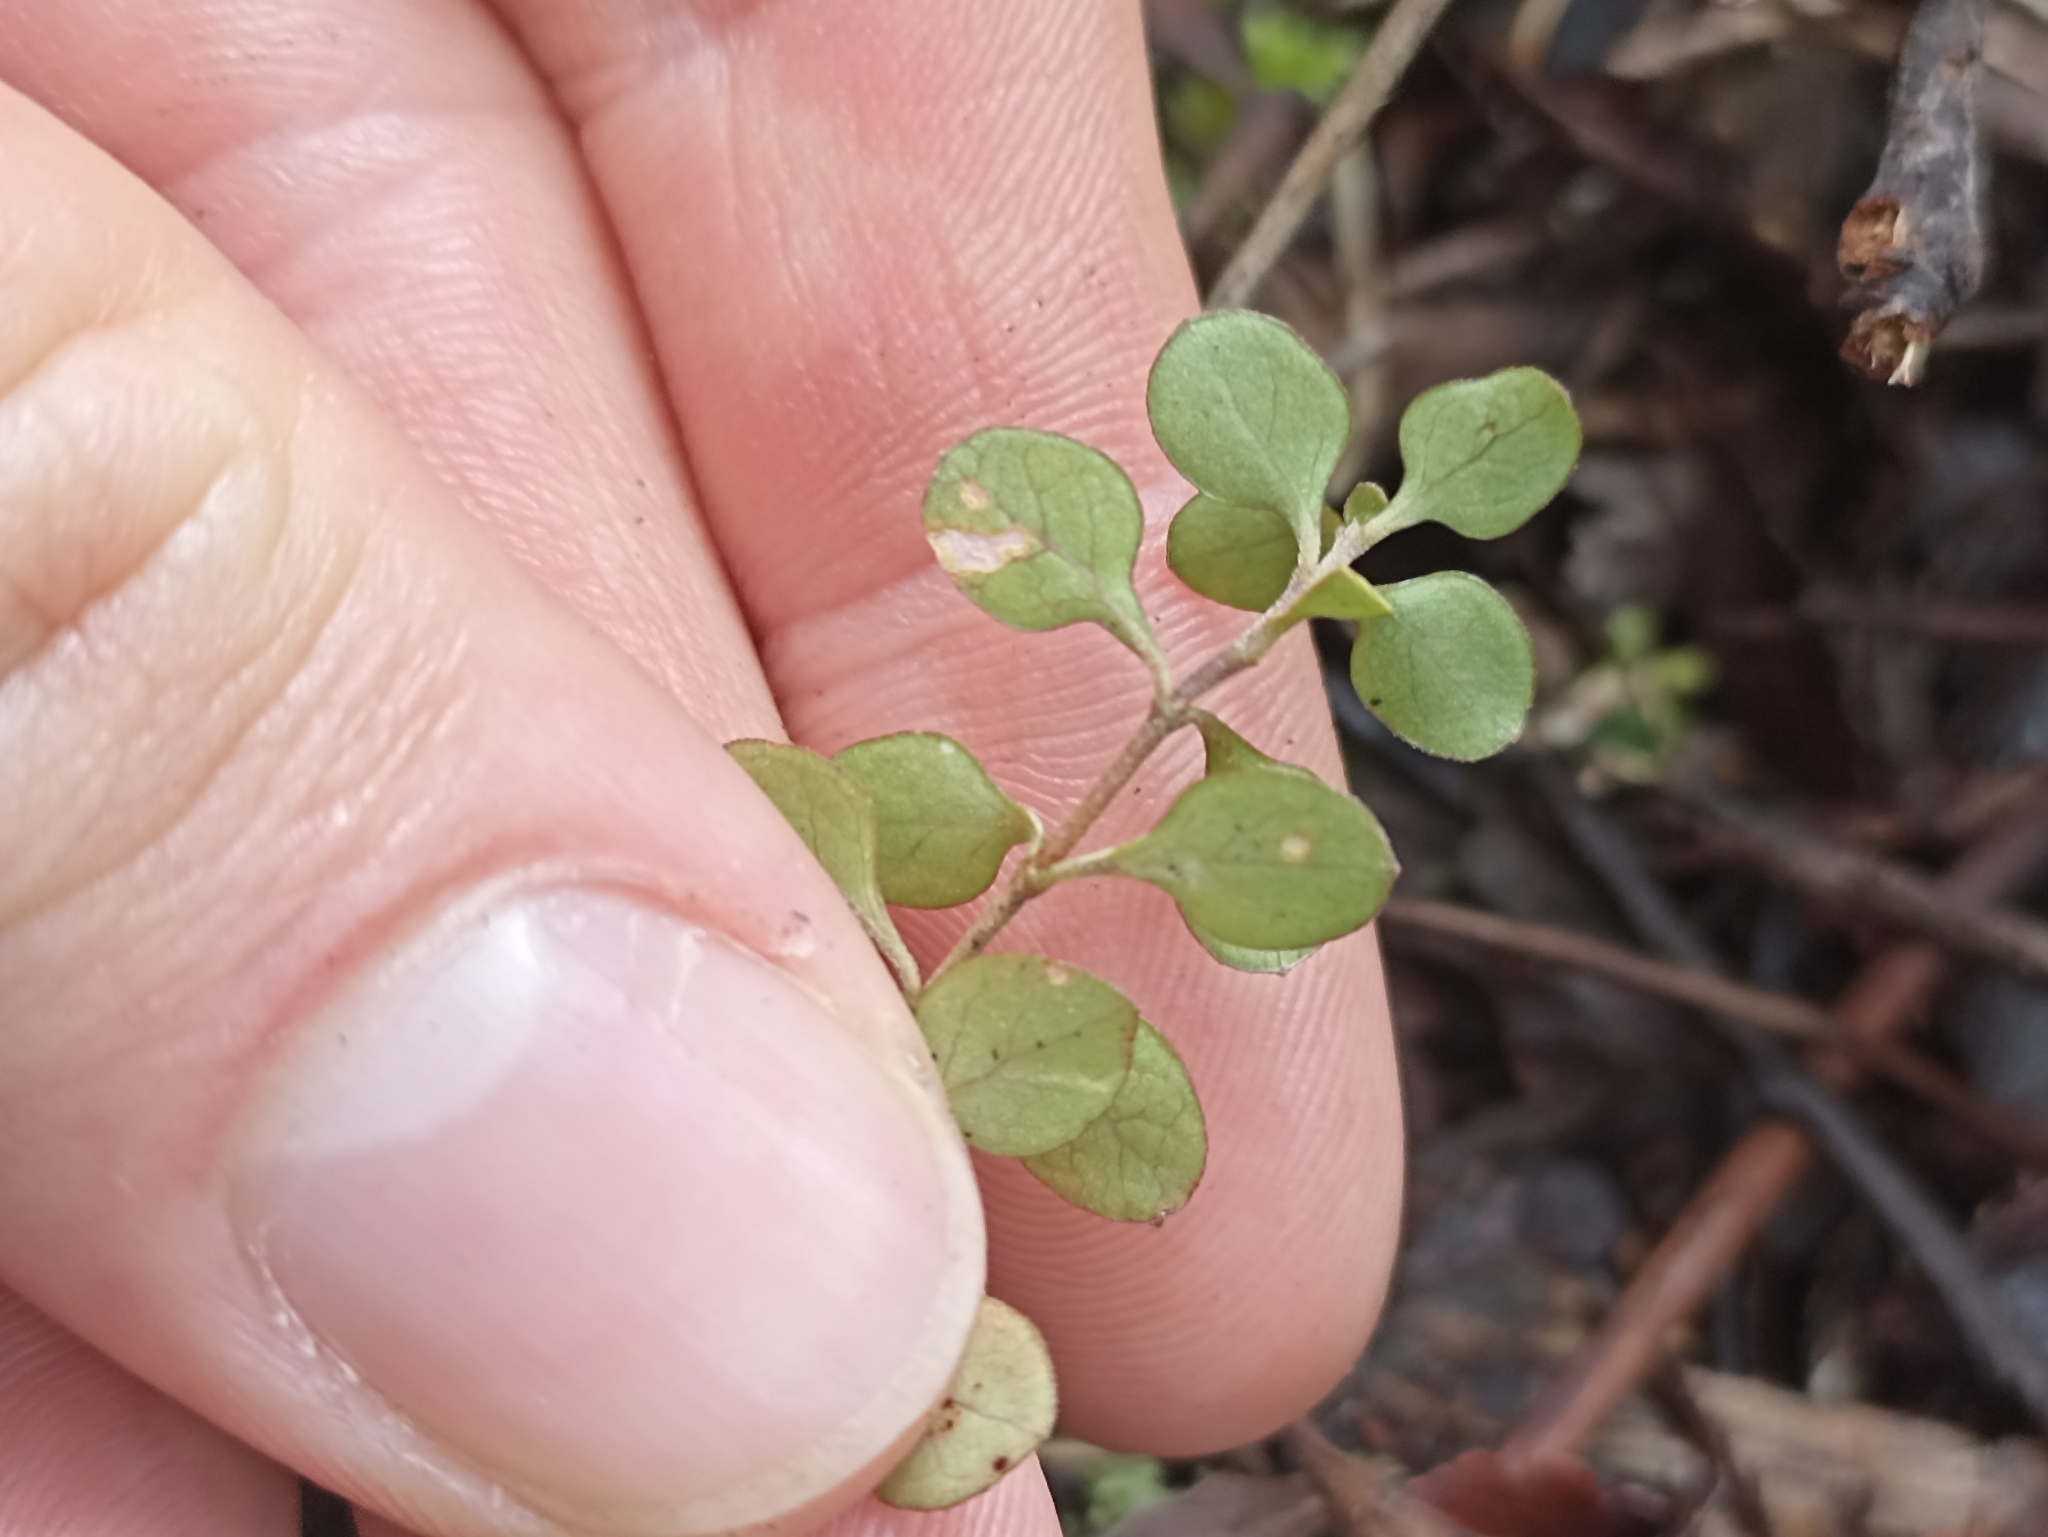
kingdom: Plantae
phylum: Tracheophyta
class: Magnoliopsida
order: Gentianales
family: Rubiaceae
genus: Coprosma
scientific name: Coprosma tenuicaulis
